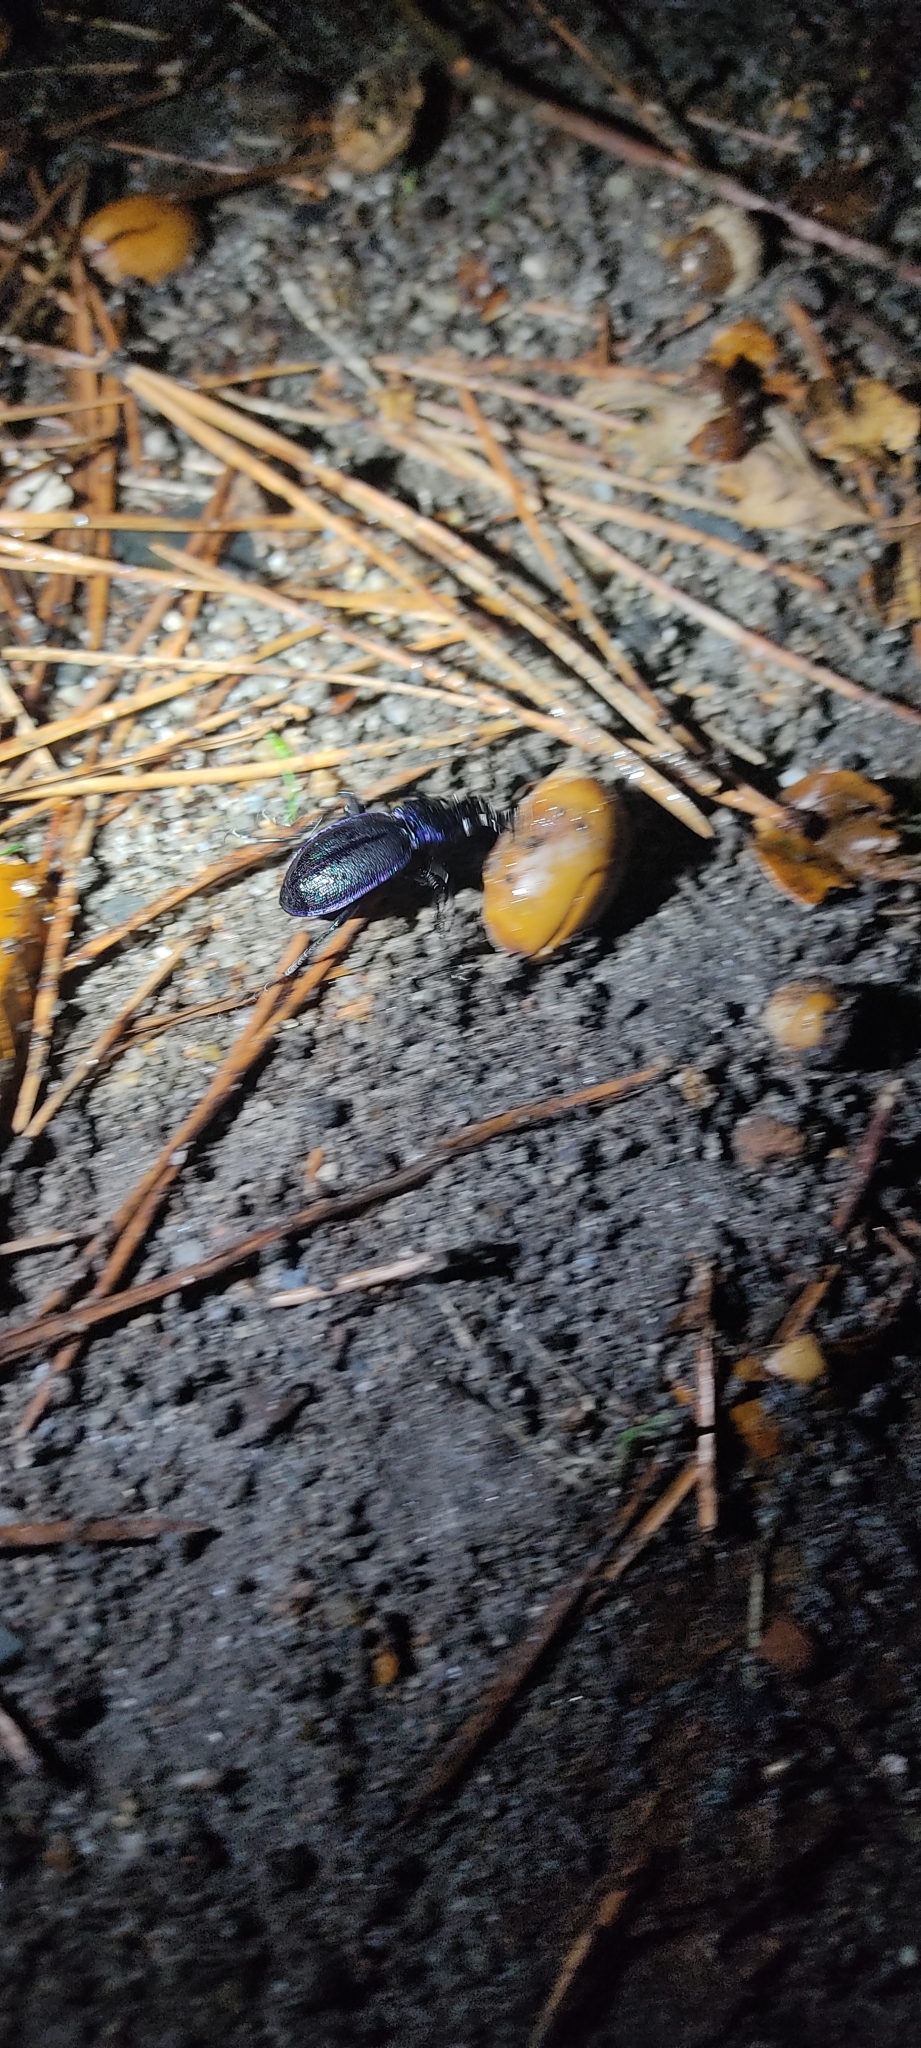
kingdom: Animalia
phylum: Arthropoda
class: Insecta
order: Coleoptera
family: Carabidae
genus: Carabus
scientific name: Carabus problematicus
